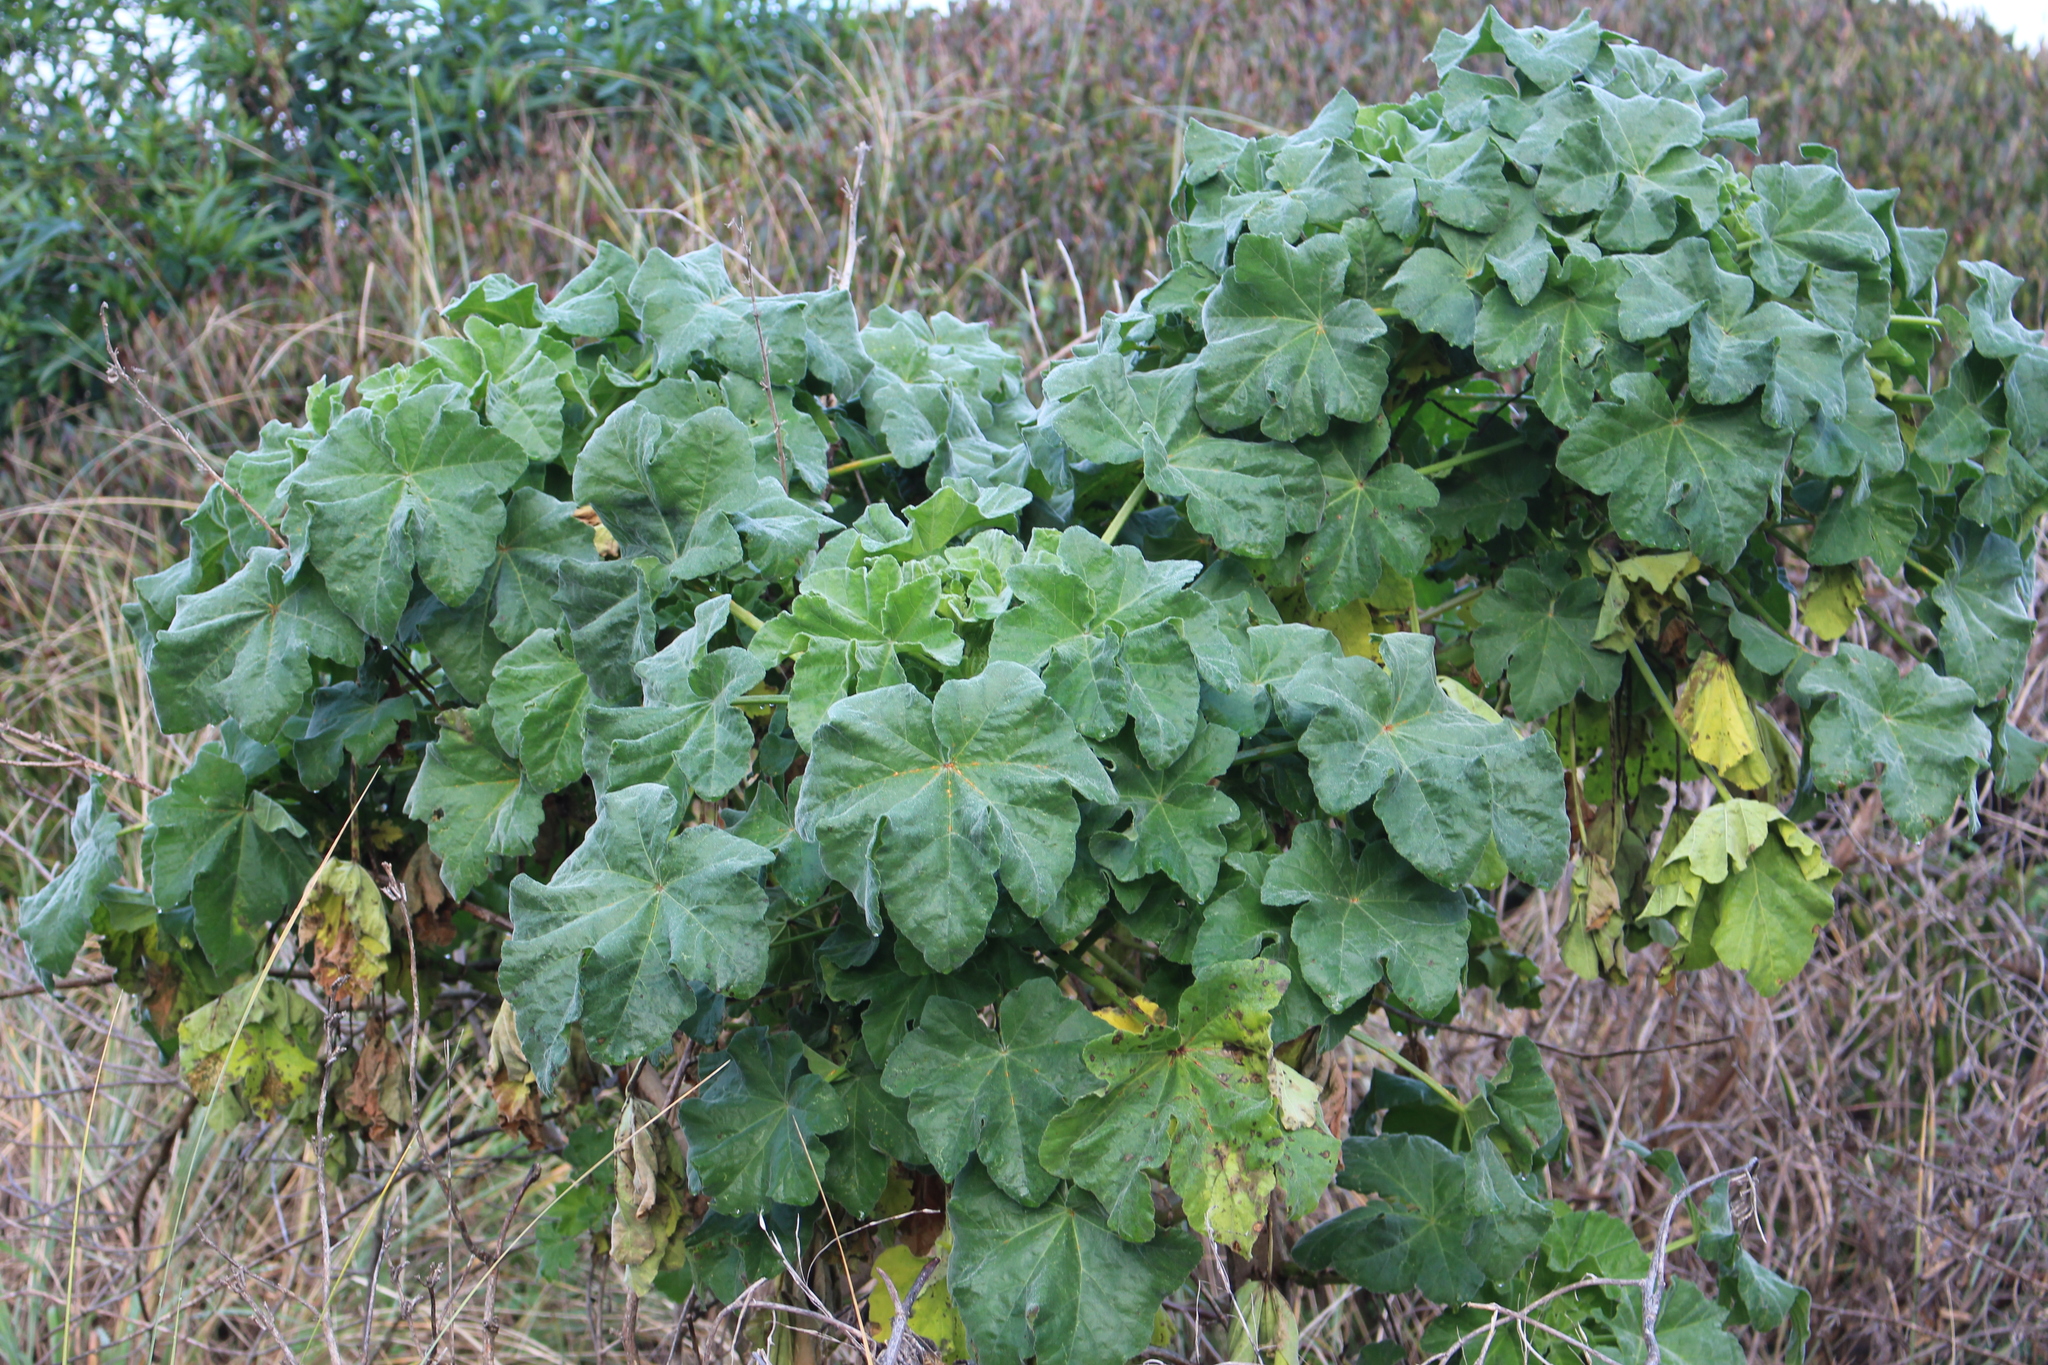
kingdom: Plantae
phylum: Tracheophyta
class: Magnoliopsida
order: Malvales
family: Malvaceae
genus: Malva
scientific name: Malva arborea
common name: Tree mallow
